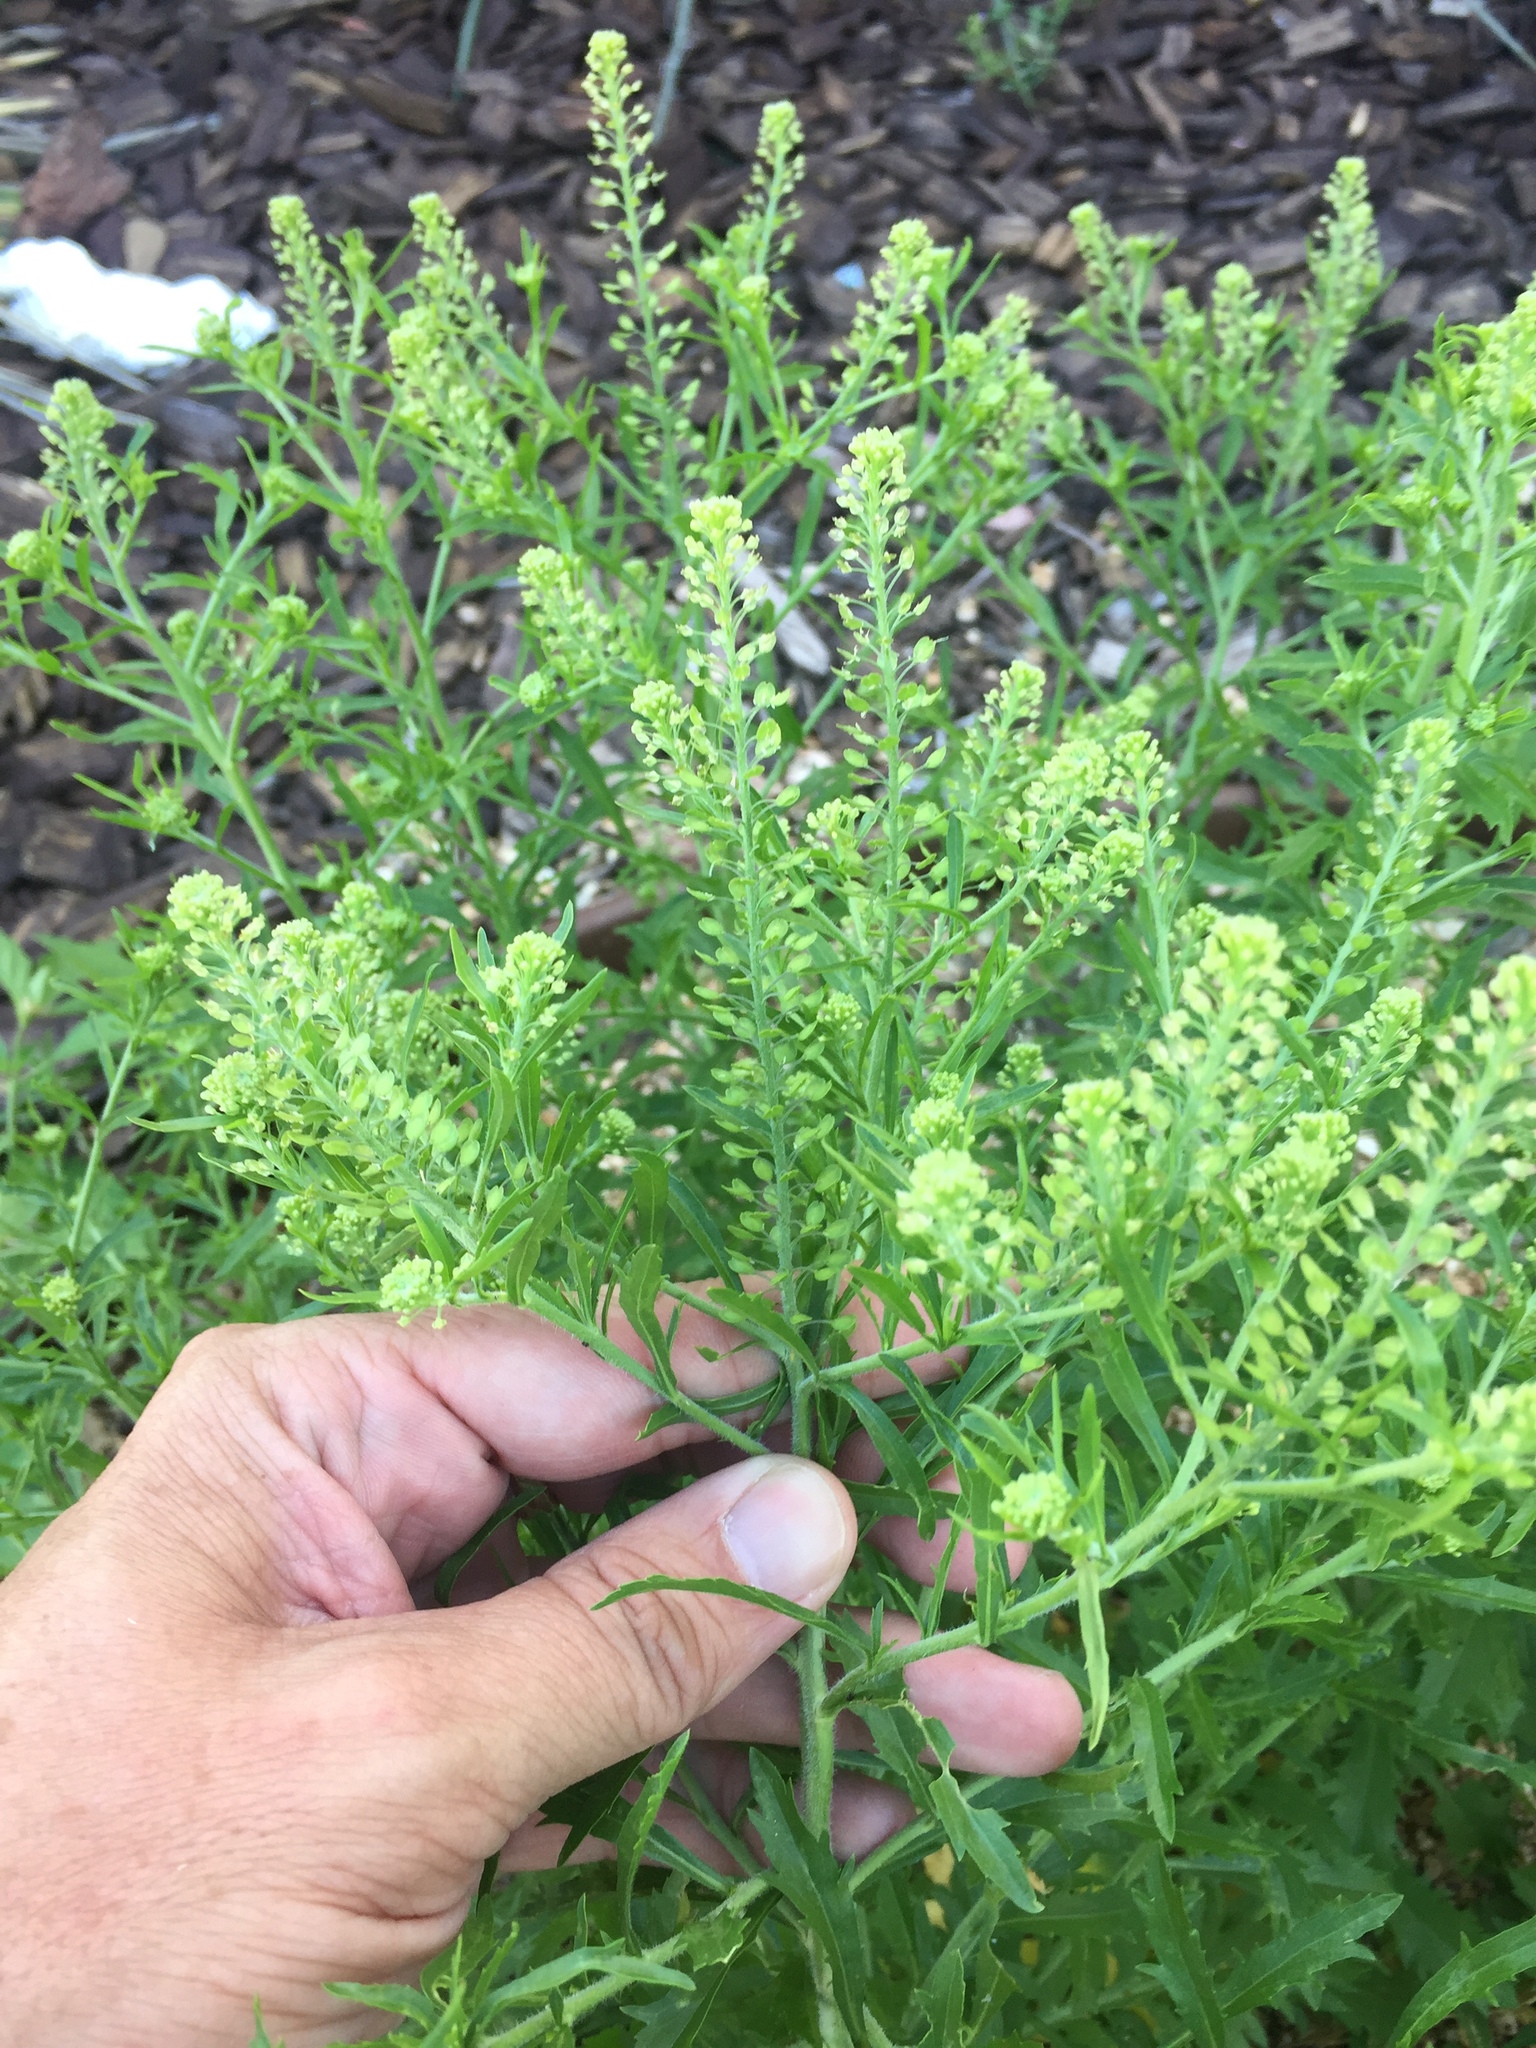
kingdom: Plantae
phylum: Tracheophyta
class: Magnoliopsida
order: Brassicales
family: Brassicaceae
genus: Lepidium
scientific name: Lepidium virginicum
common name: Least pepperwort
